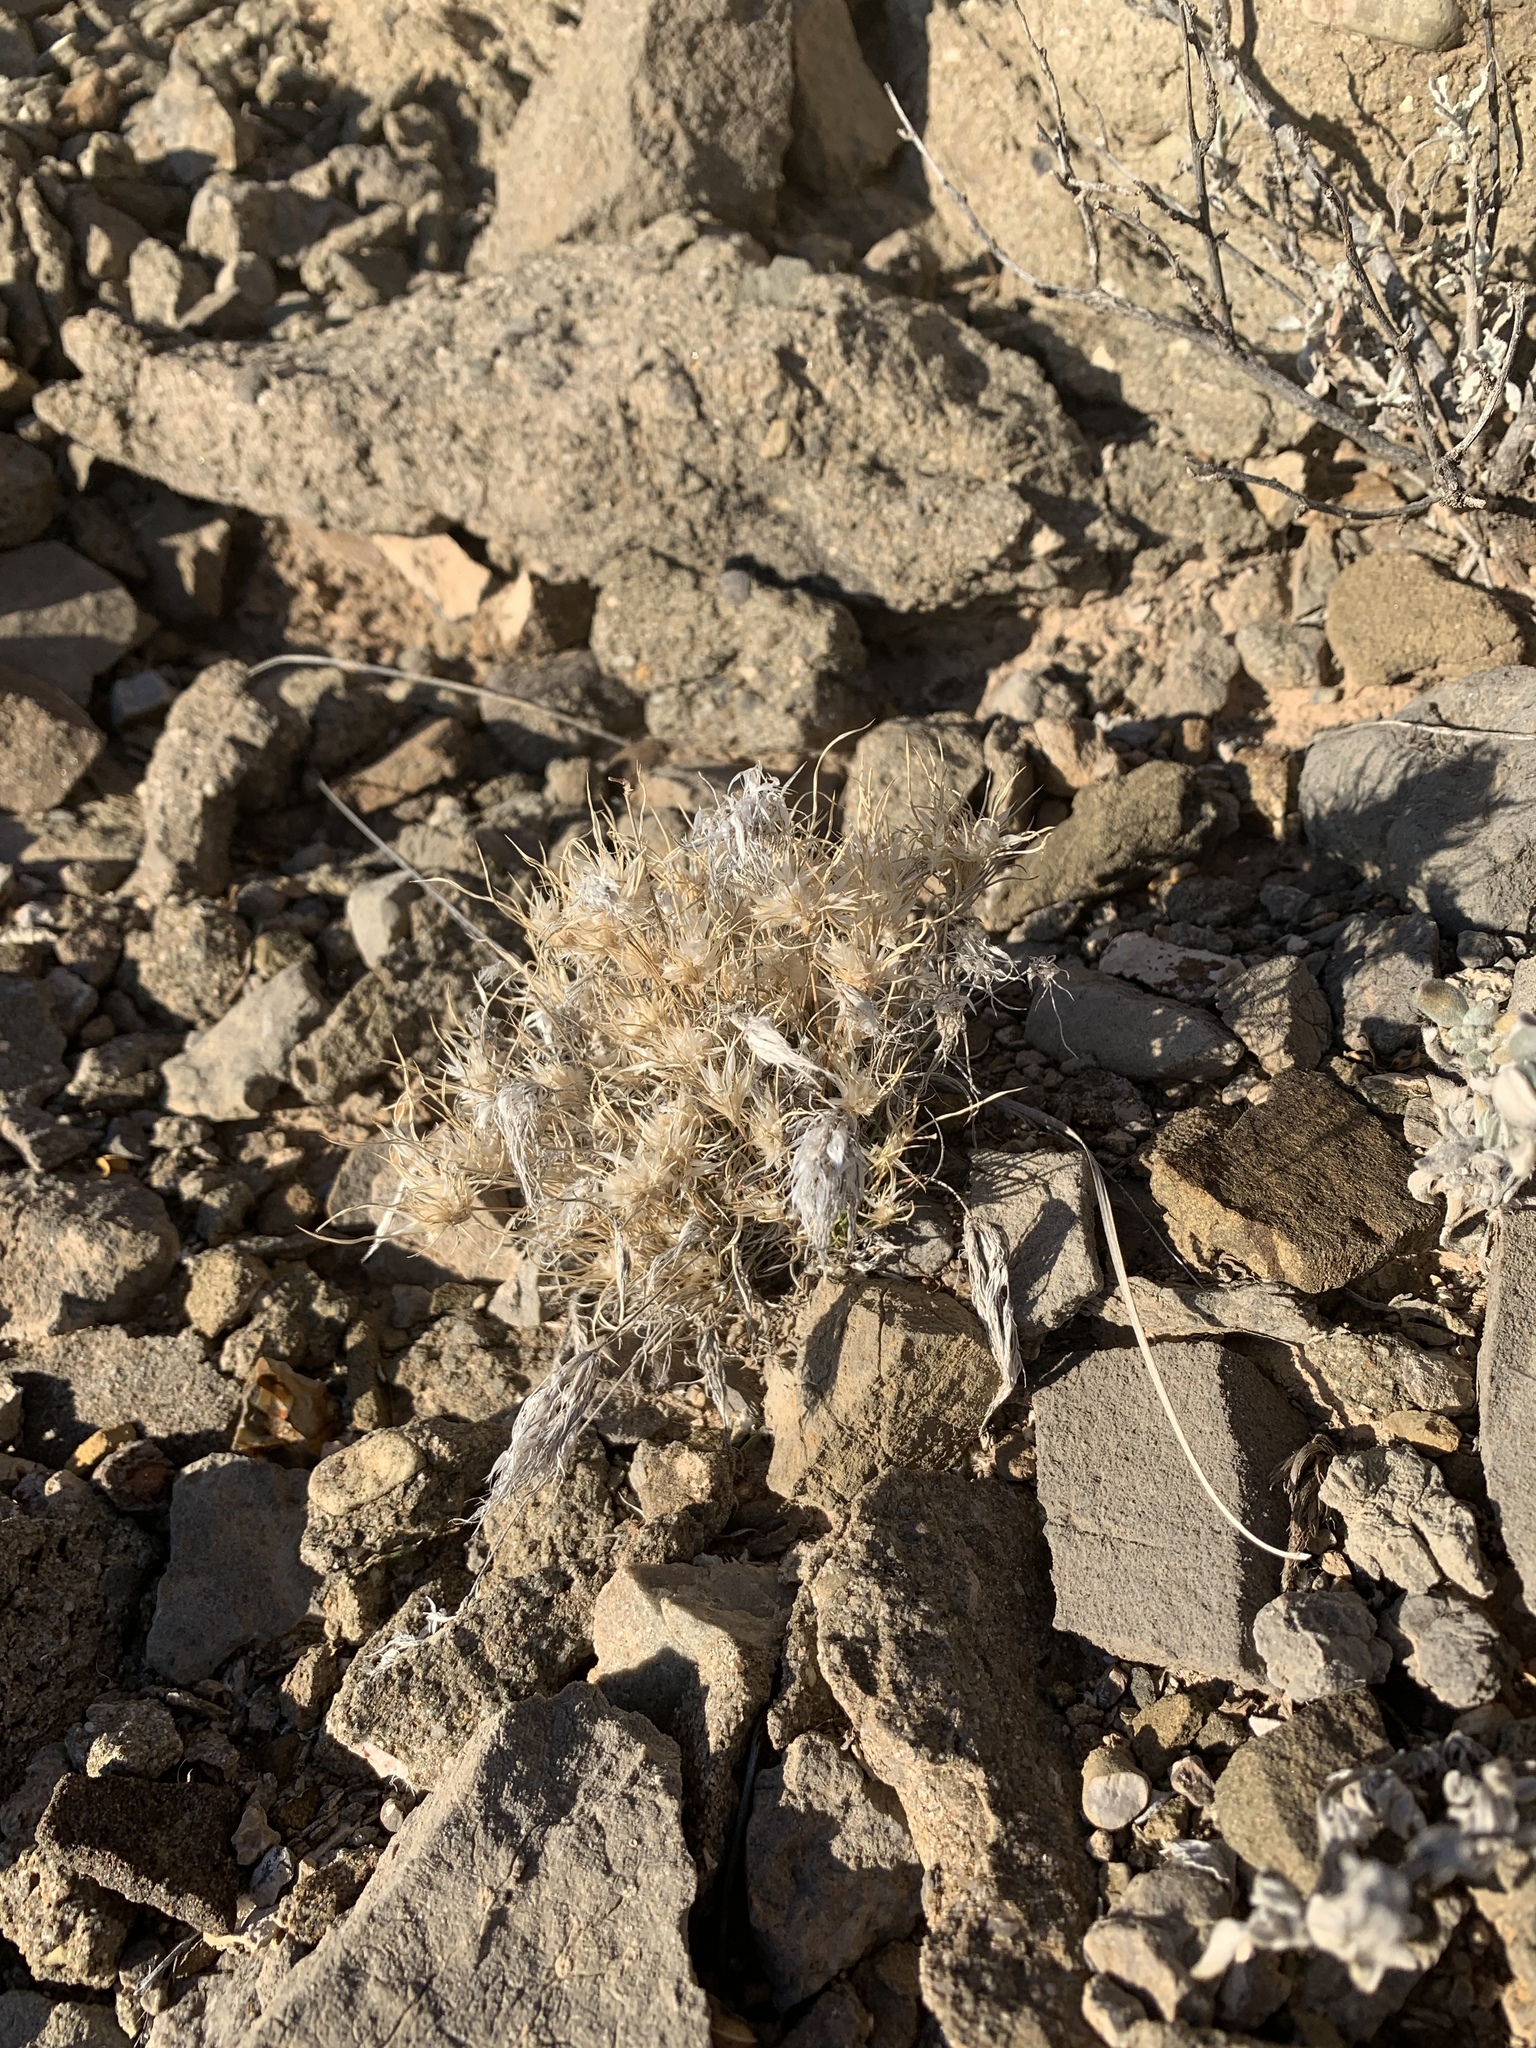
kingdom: Plantae
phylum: Tracheophyta
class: Liliopsida
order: Poales
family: Poaceae
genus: Dasyochloa
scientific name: Dasyochloa pulchella
